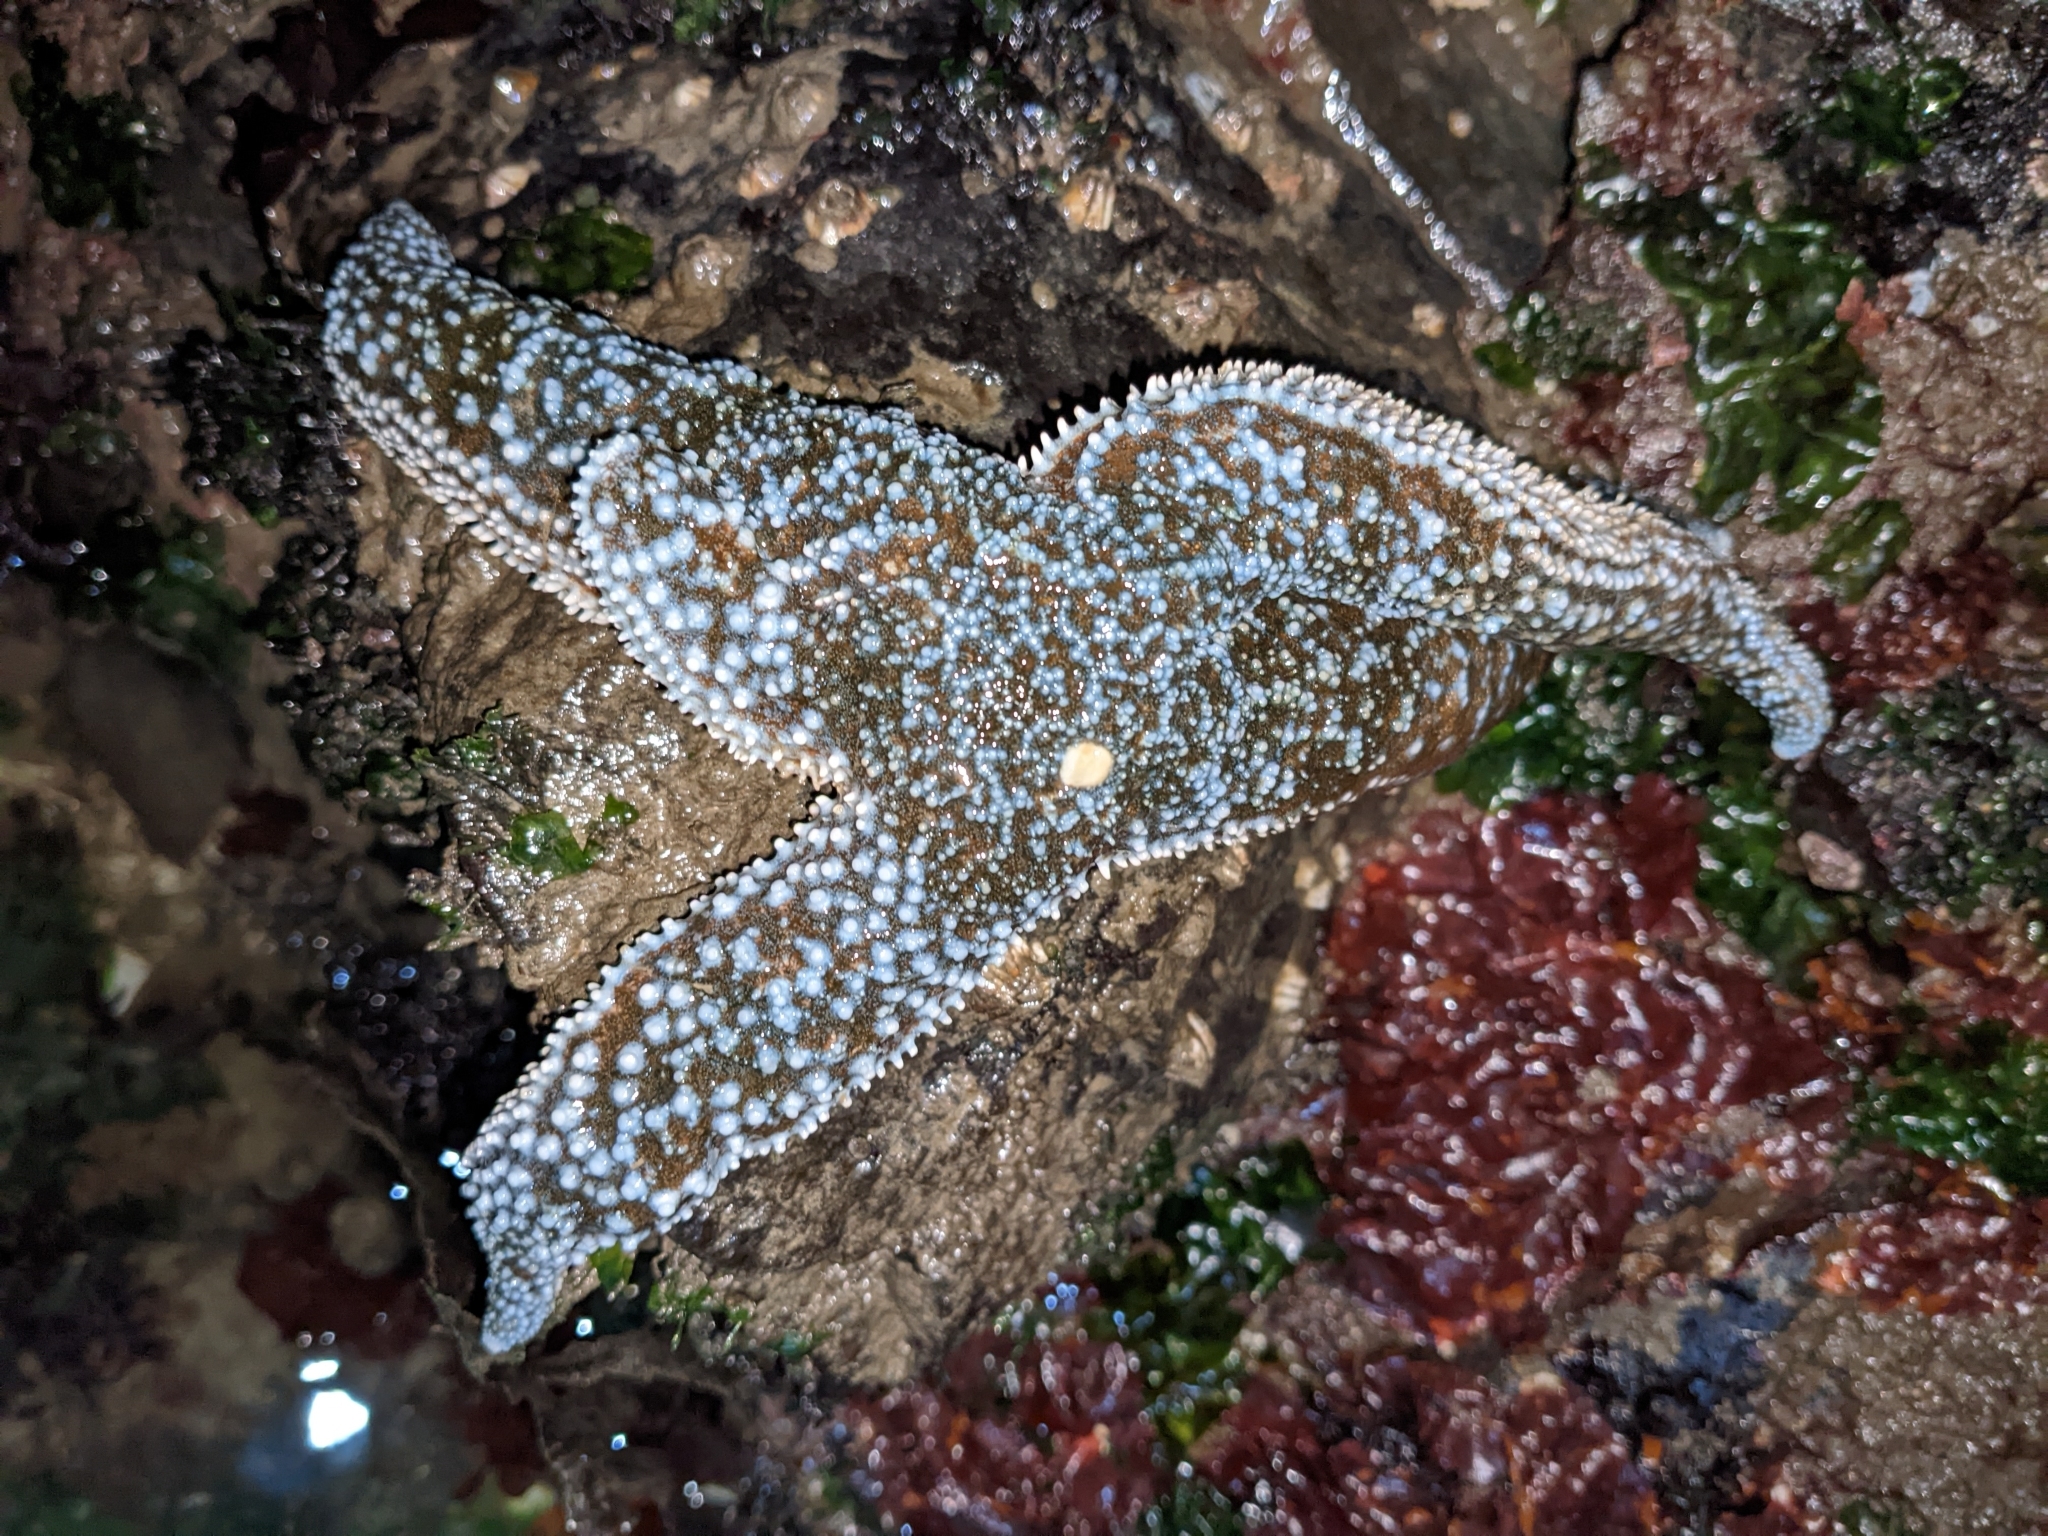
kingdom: Animalia
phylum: Echinodermata
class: Asteroidea
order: Forcipulatida
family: Asteriidae
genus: Evasterias
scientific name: Evasterias troschelii
